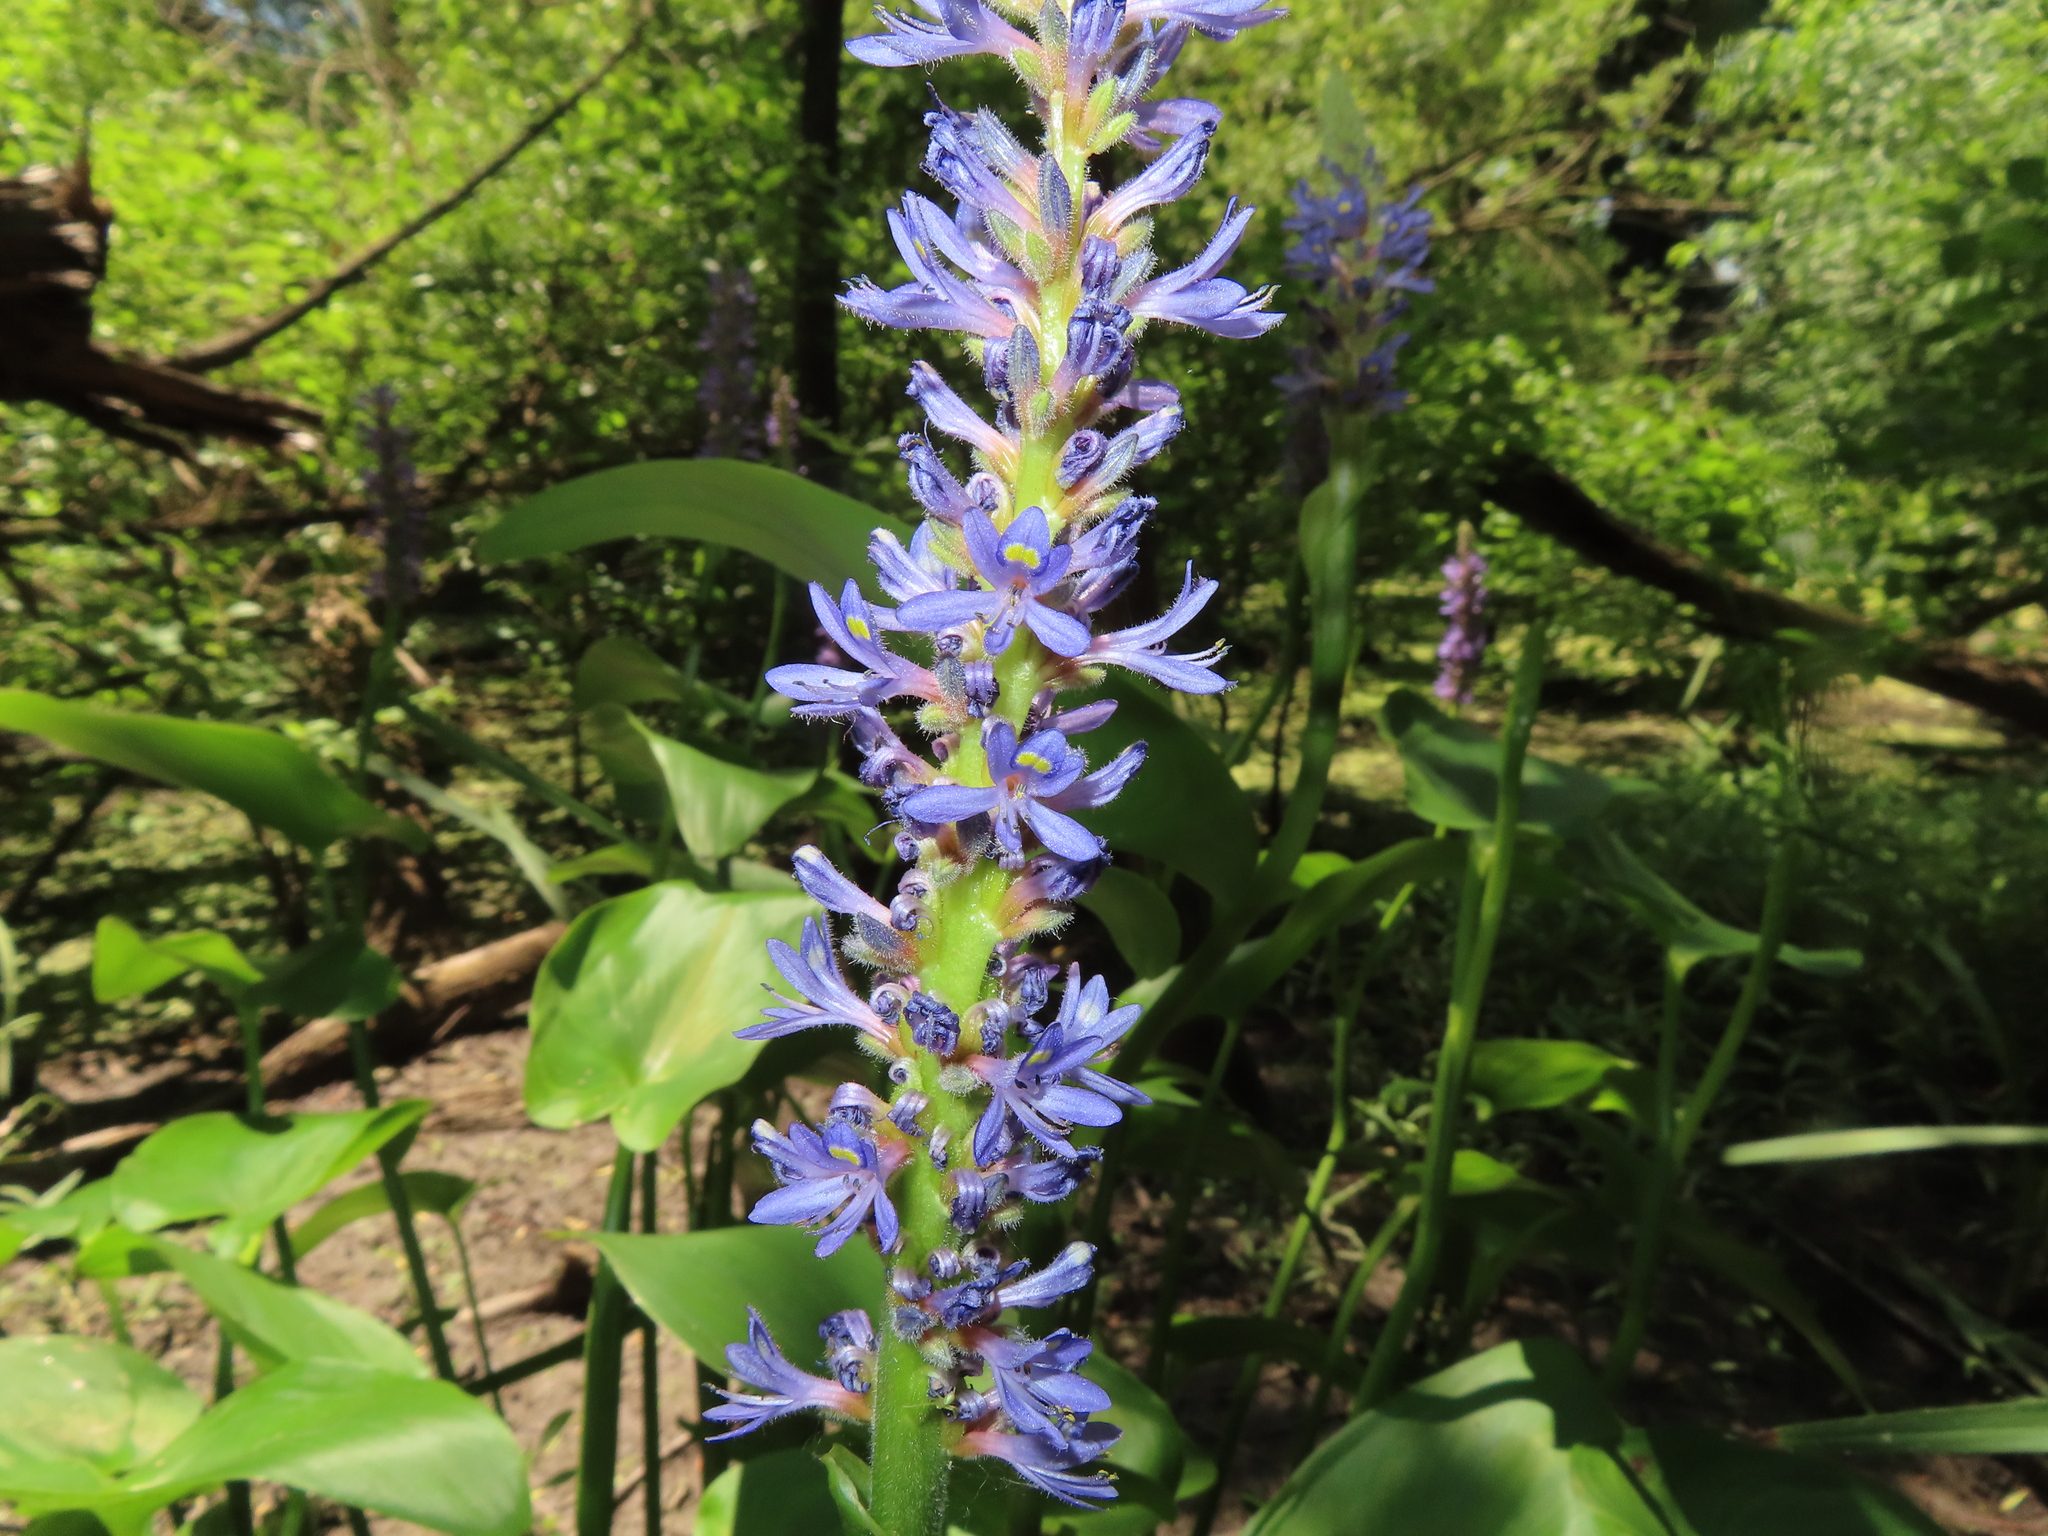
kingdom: Plantae
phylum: Tracheophyta
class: Liliopsida
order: Commelinales
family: Pontederiaceae
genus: Pontederia
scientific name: Pontederia cordata
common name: Pickerelweed
